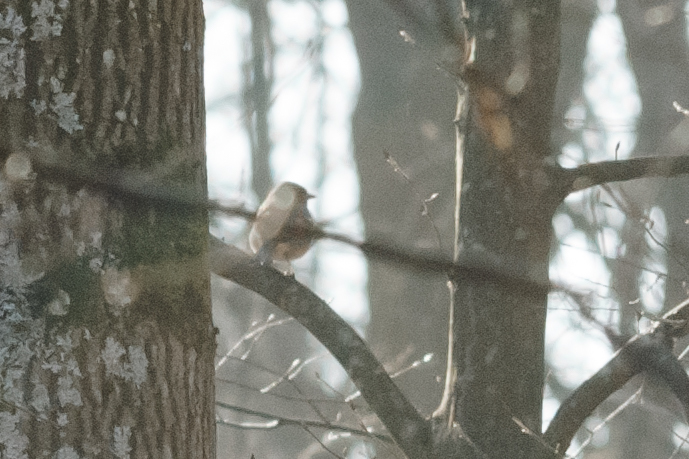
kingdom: Animalia
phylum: Chordata
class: Aves
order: Passeriformes
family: Fringillidae
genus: Fringilla
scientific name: Fringilla coelebs
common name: Common chaffinch
